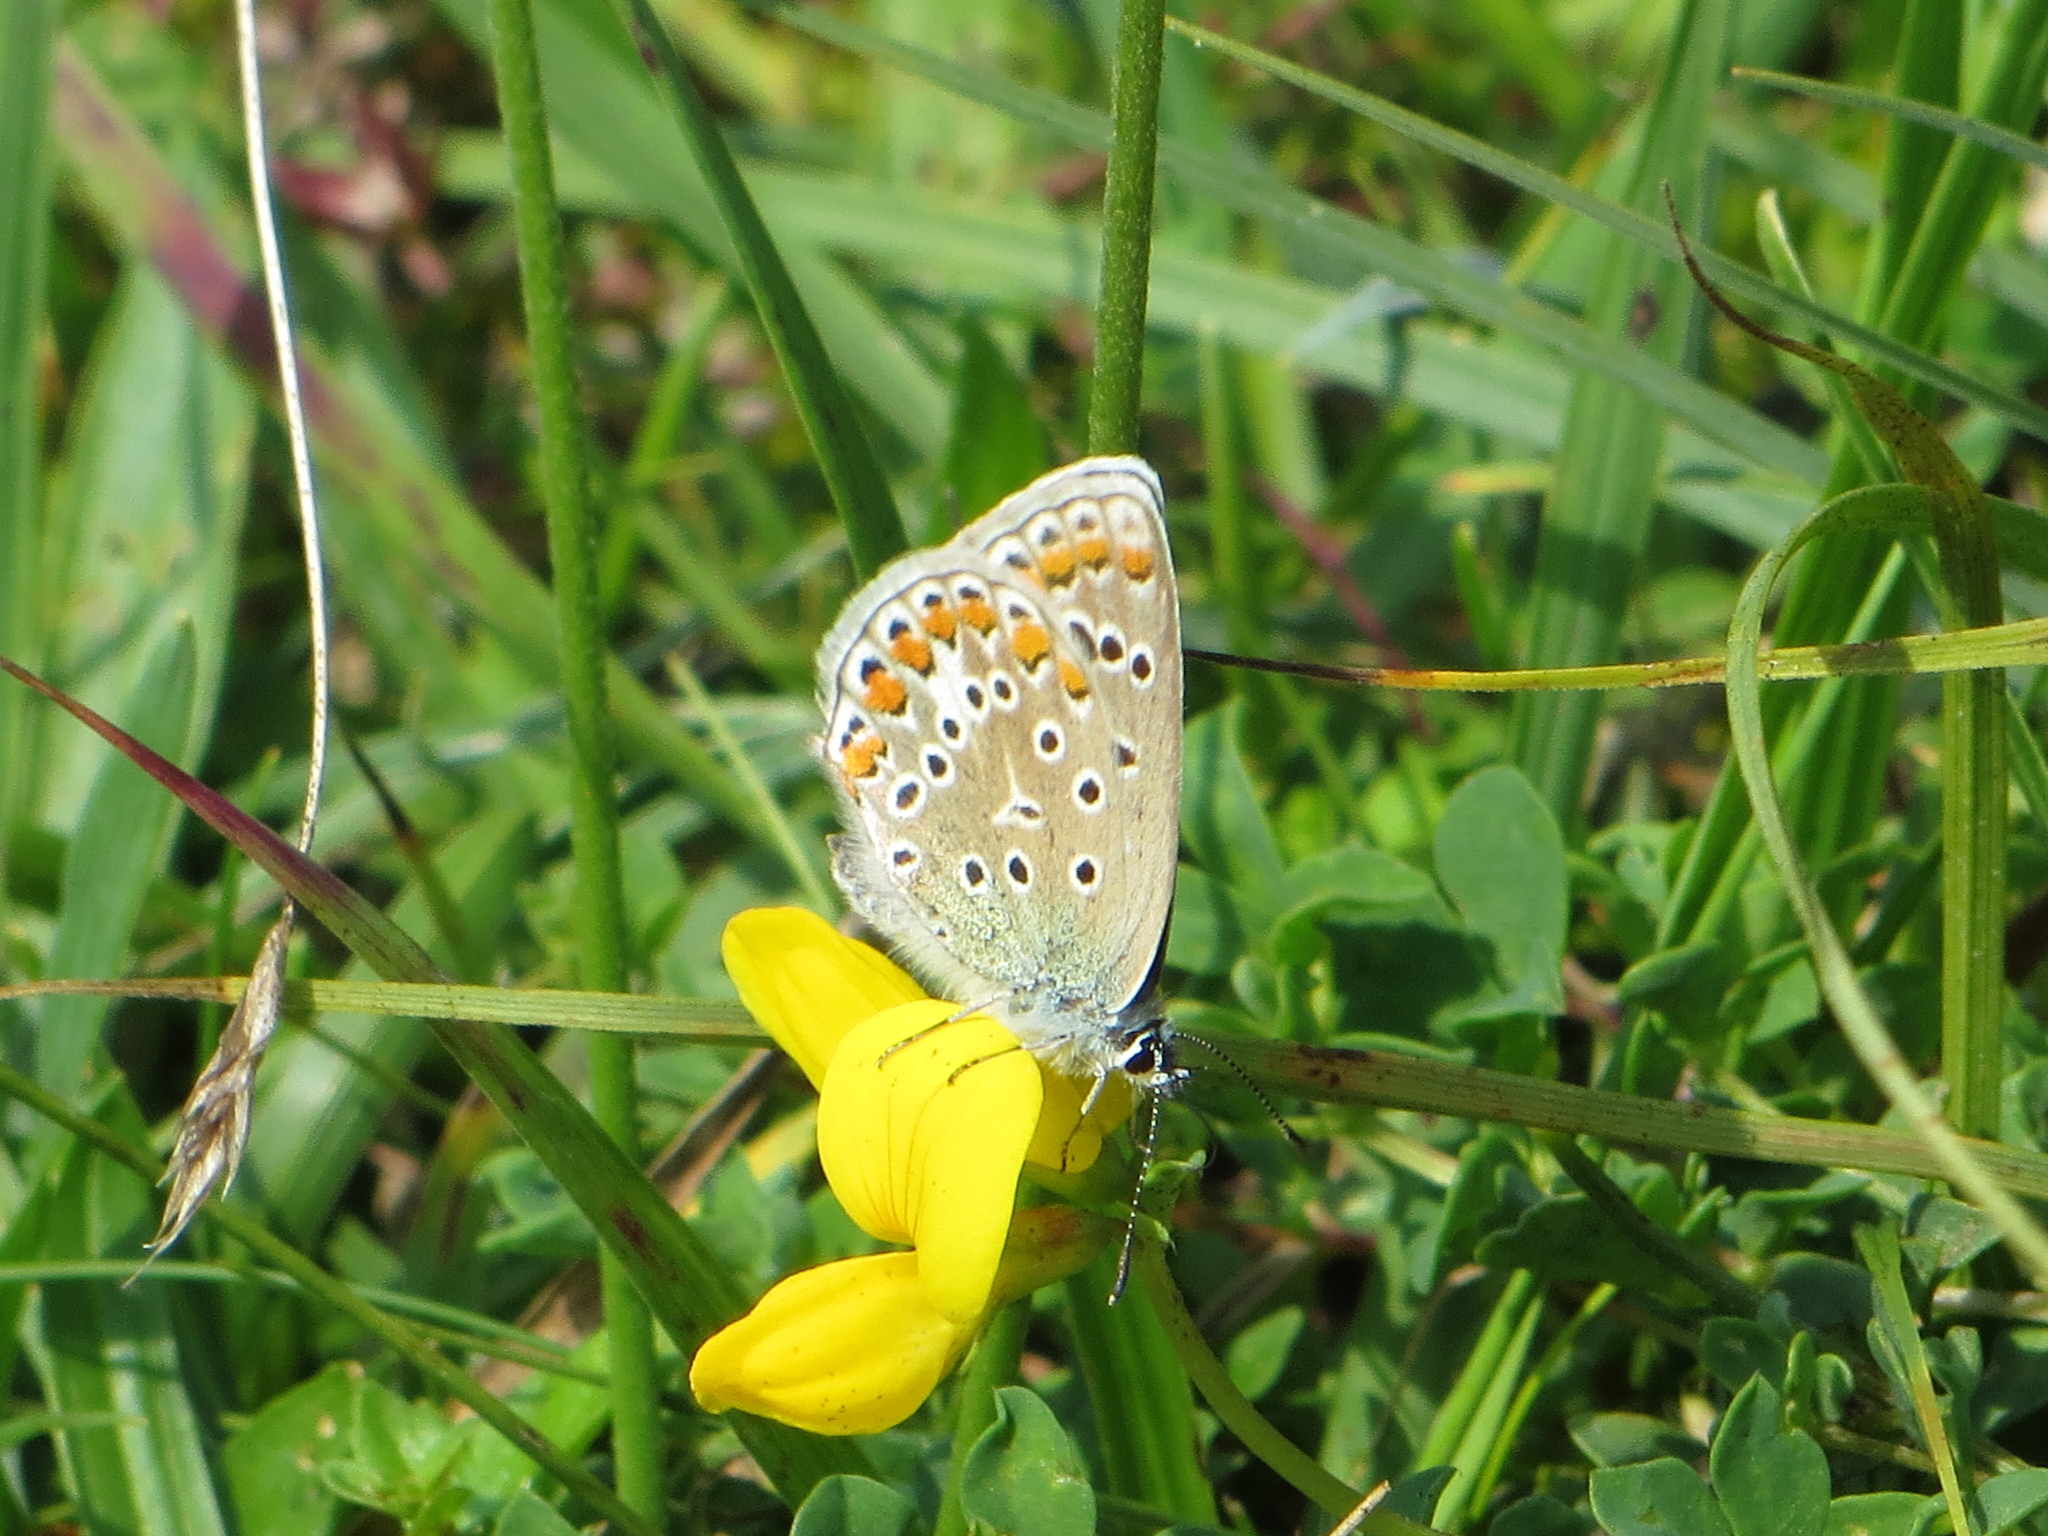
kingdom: Animalia
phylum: Arthropoda
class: Insecta
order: Lepidoptera
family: Lycaenidae
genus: Polyommatus
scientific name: Polyommatus icarus
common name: Common blue
